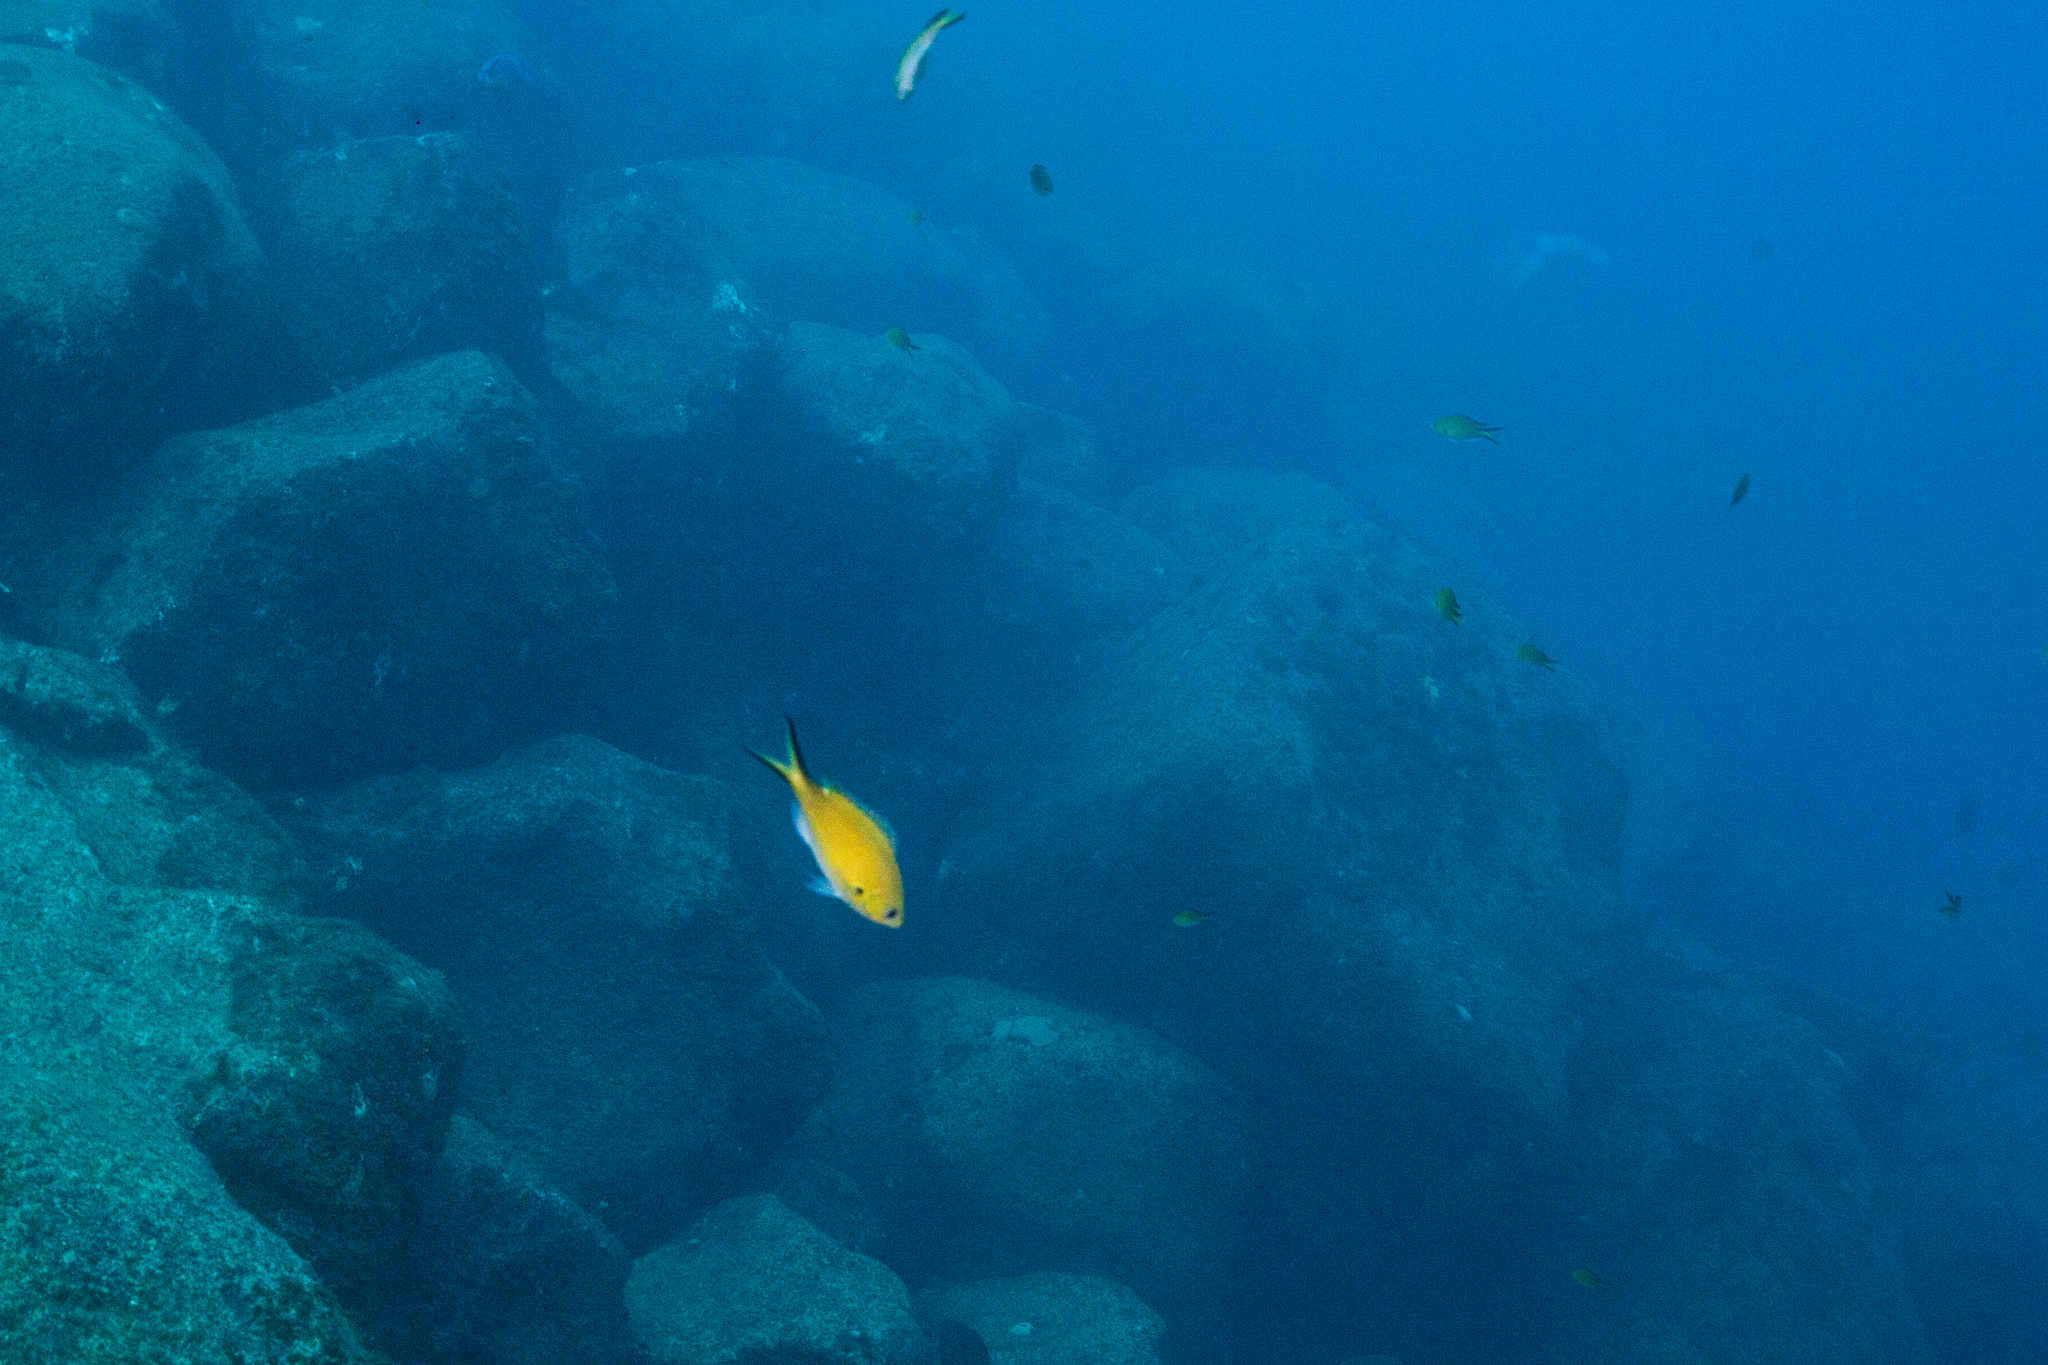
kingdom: Animalia
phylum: Chordata
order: Perciformes
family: Pomacentridae
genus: Chromis
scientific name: Chromis multilineata
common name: Brown chromis
